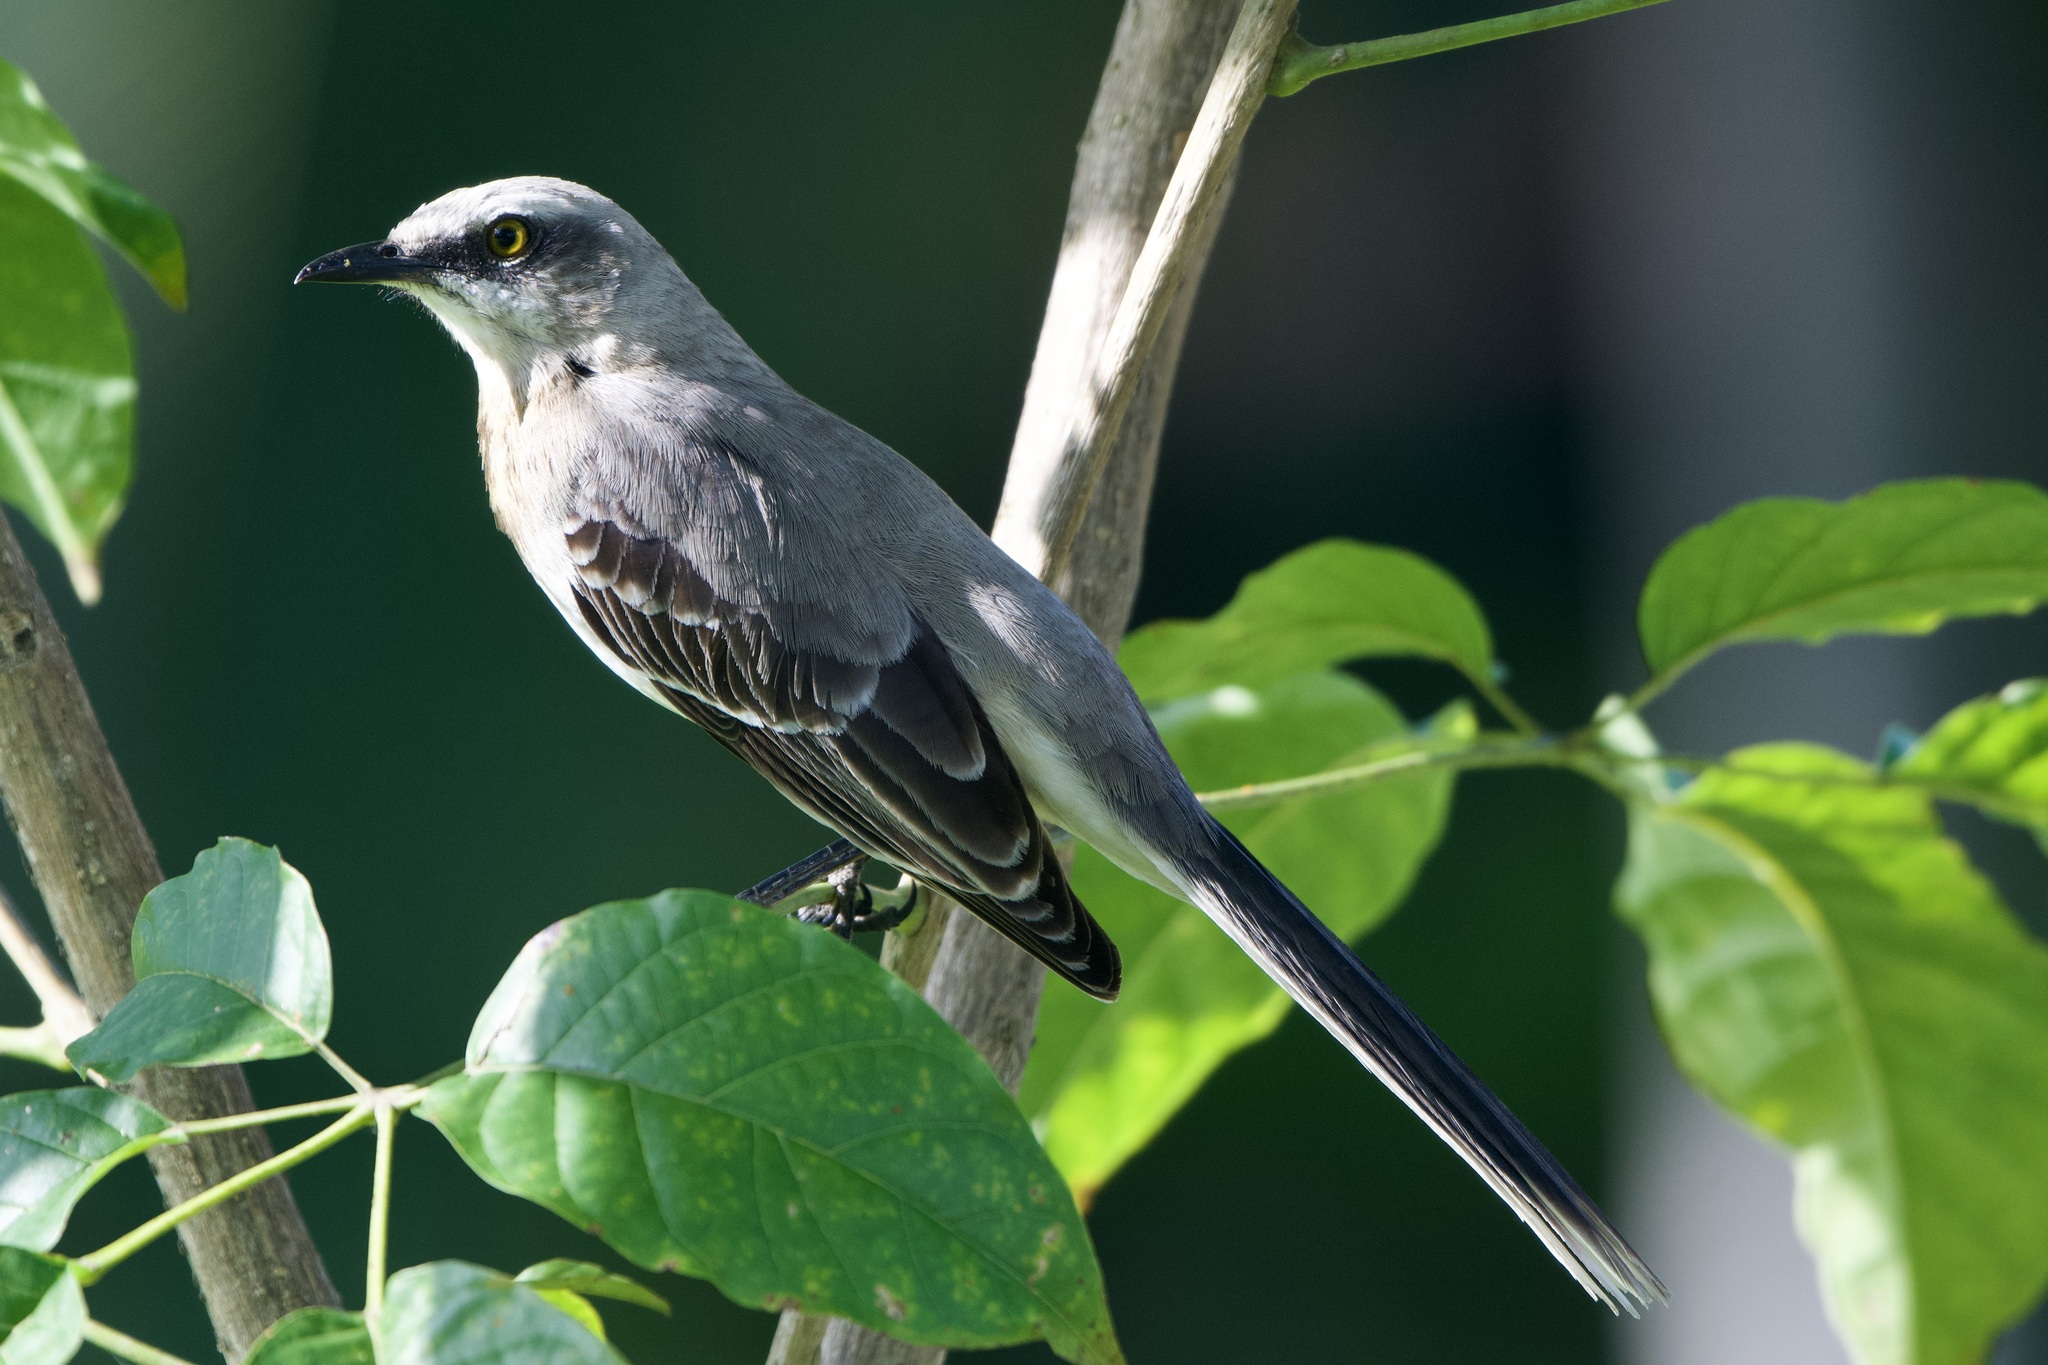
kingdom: Animalia
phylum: Chordata
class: Aves
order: Passeriformes
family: Mimidae
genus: Mimus
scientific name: Mimus gilvus
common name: Tropical mockingbird
